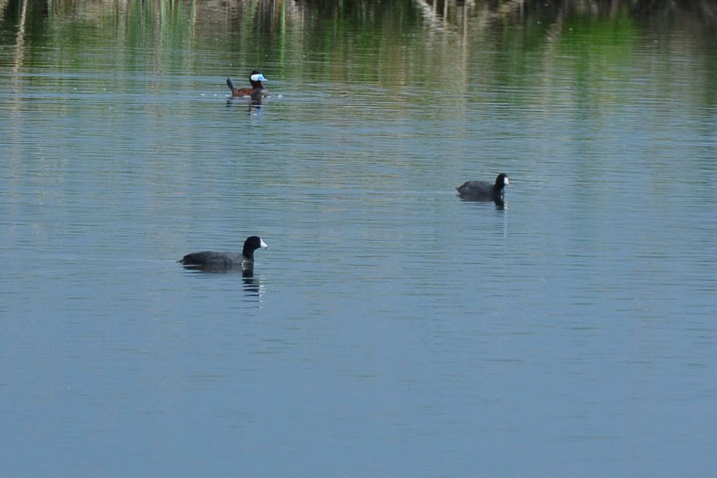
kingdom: Animalia
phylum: Chordata
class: Aves
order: Gruiformes
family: Rallidae
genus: Fulica
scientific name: Fulica americana
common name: American coot
